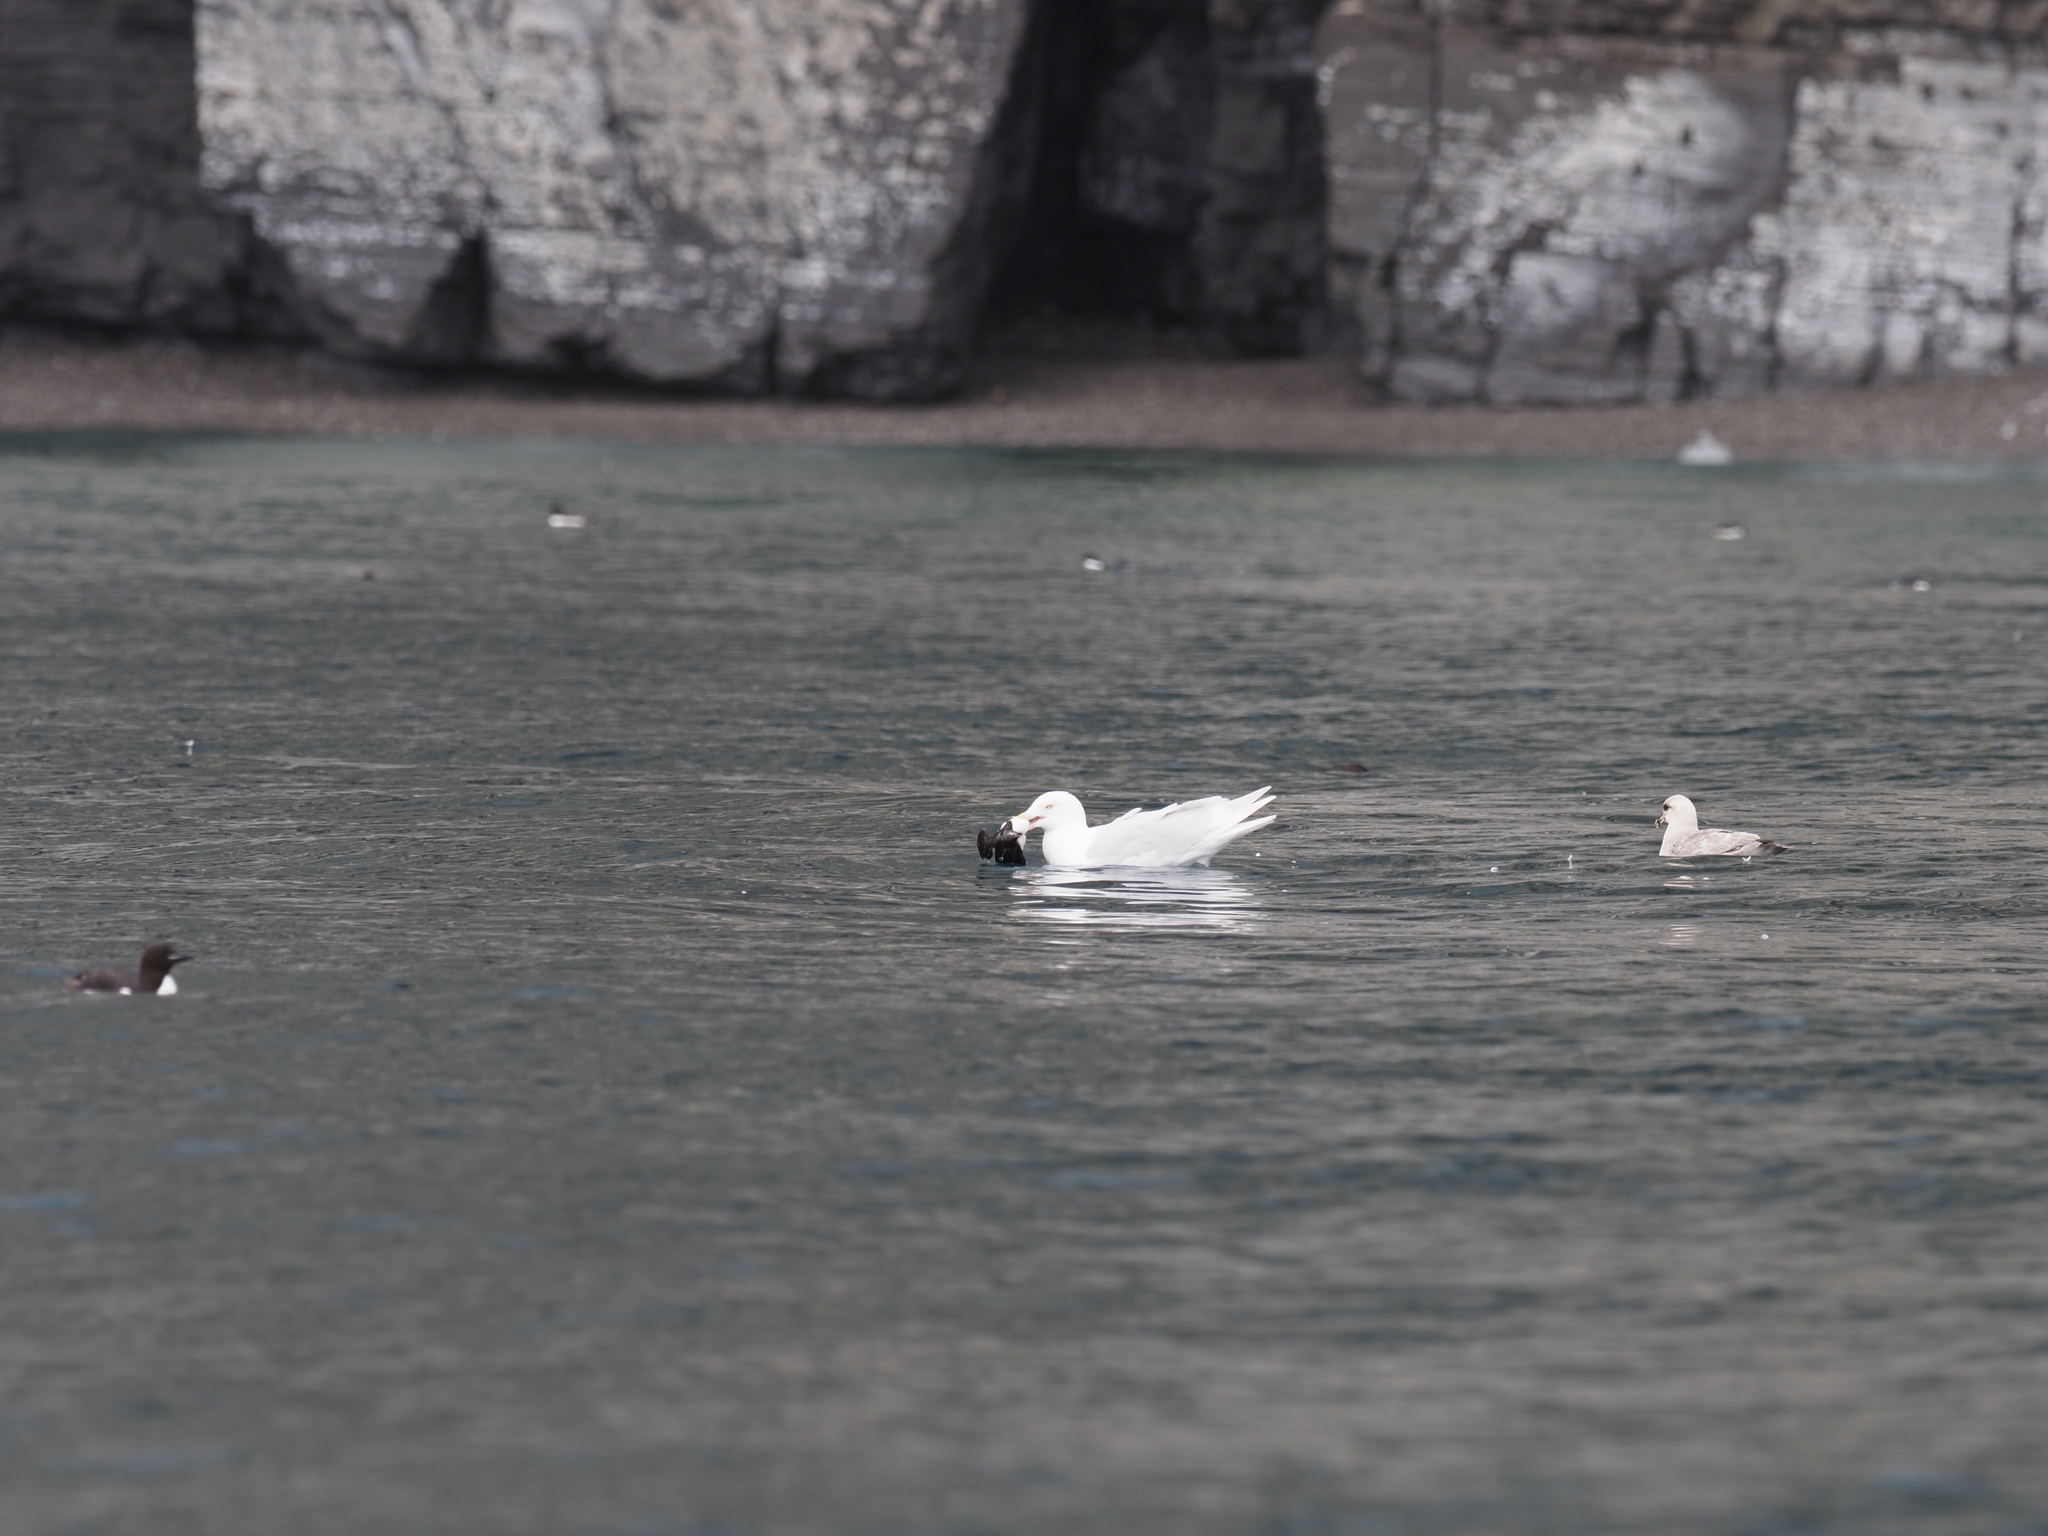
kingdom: Animalia
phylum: Chordata
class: Aves
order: Charadriiformes
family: Laridae
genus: Larus
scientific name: Larus hyperboreus
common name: Glaucous gull
